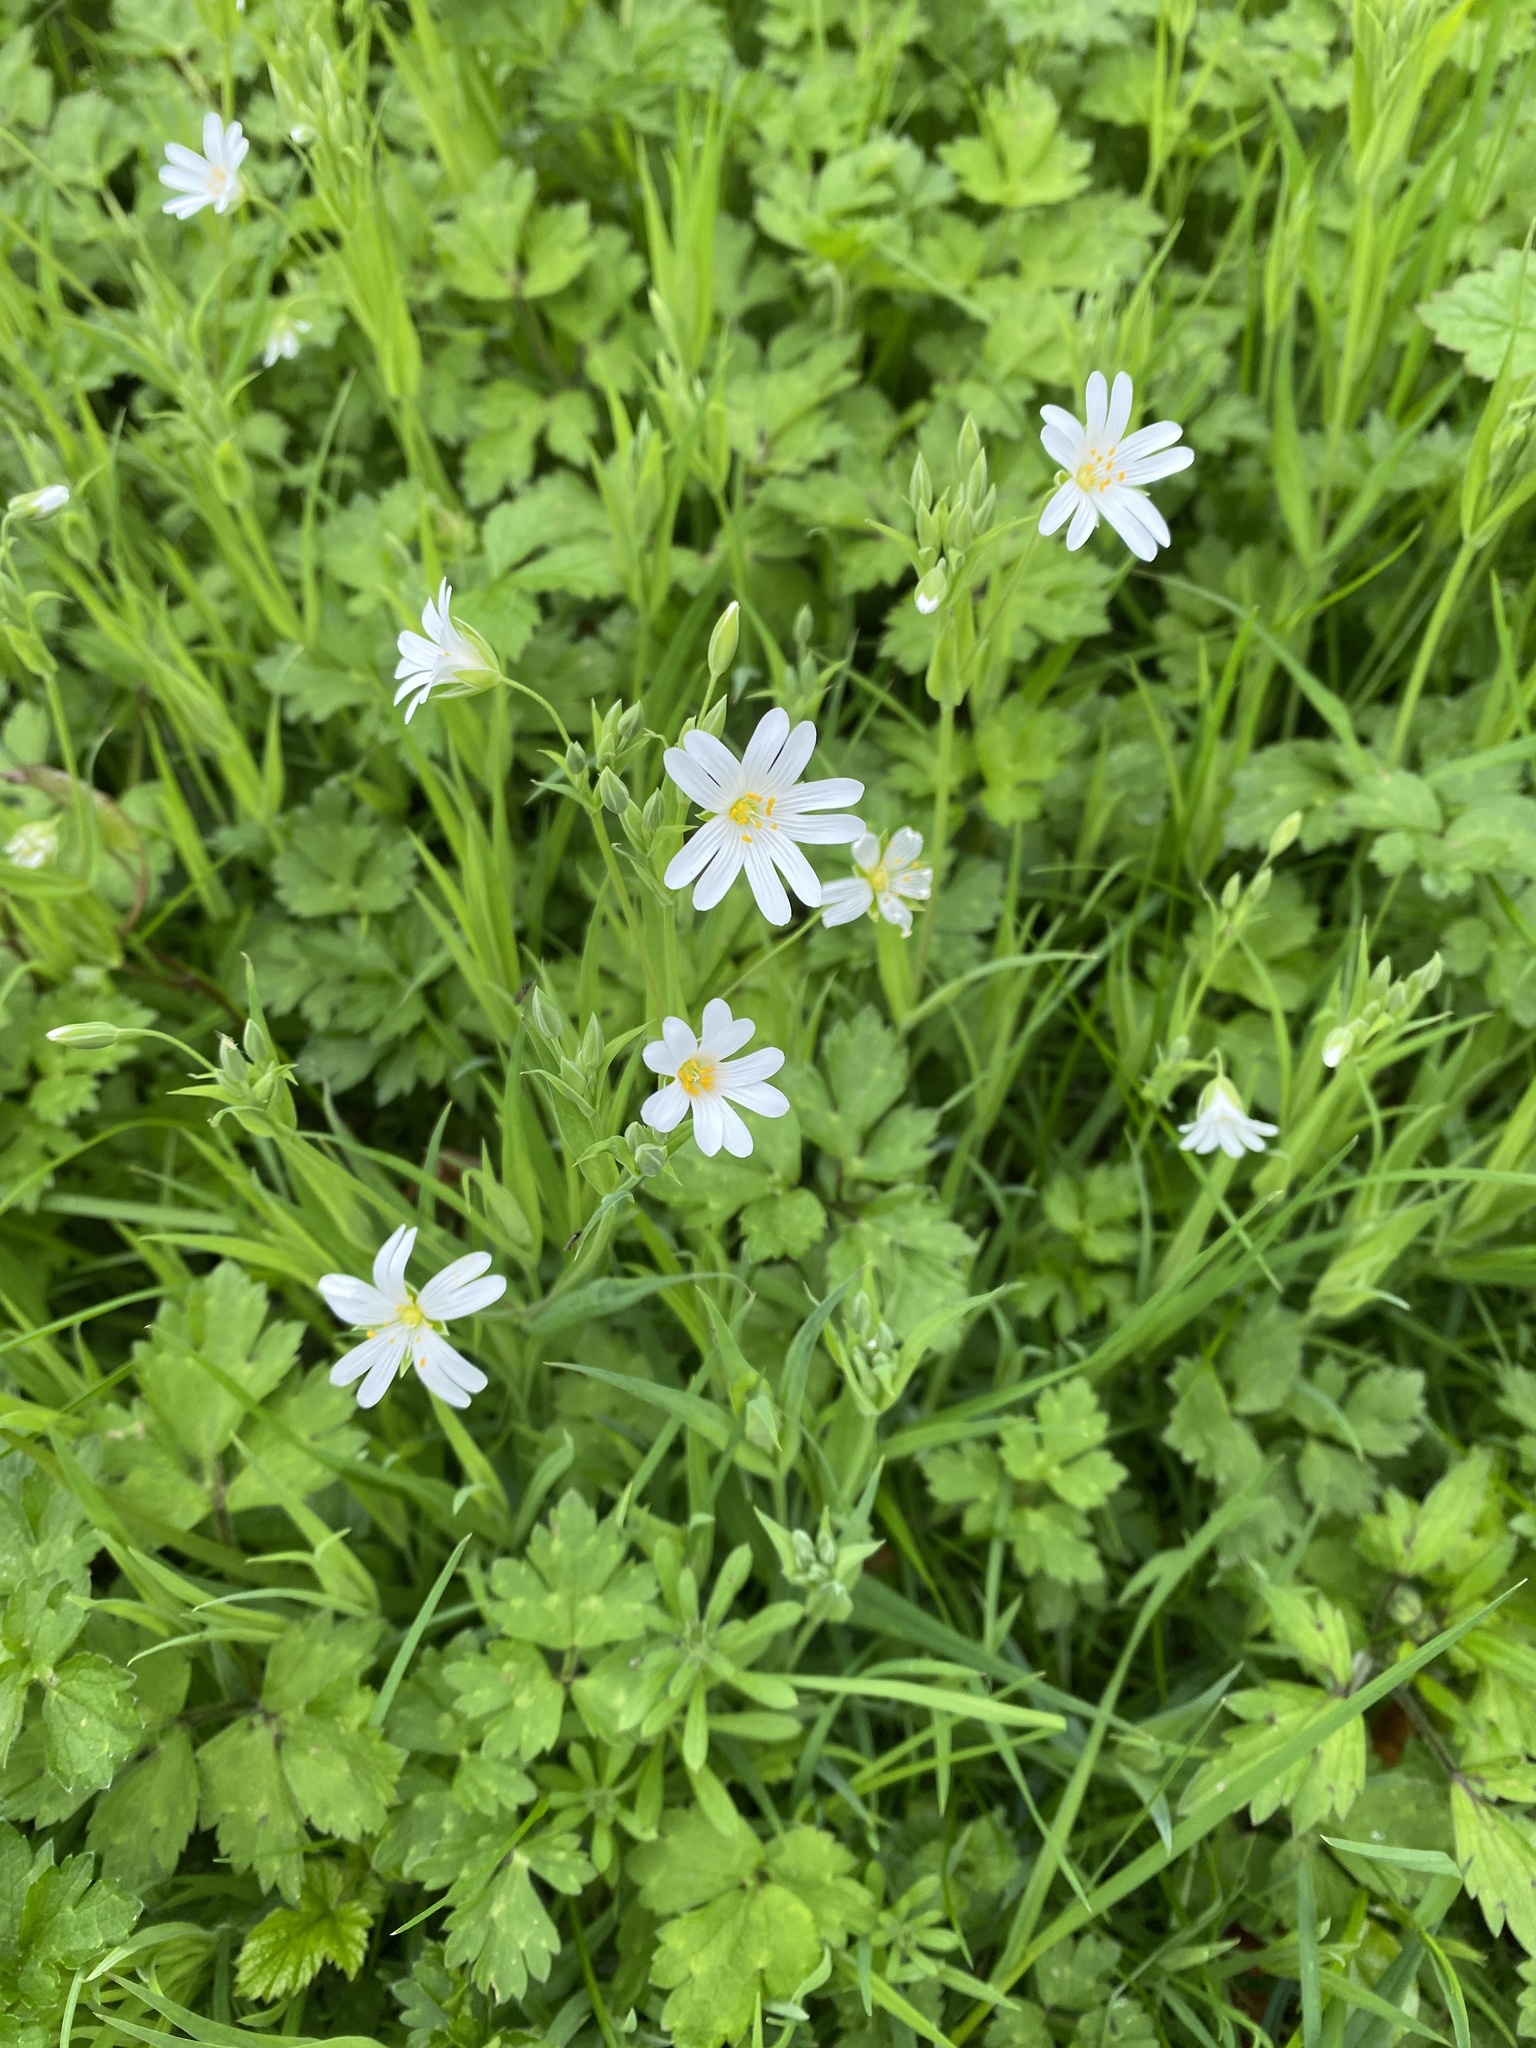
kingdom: Plantae
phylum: Tracheophyta
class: Magnoliopsida
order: Caryophyllales
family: Caryophyllaceae
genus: Rabelera
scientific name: Rabelera holostea
